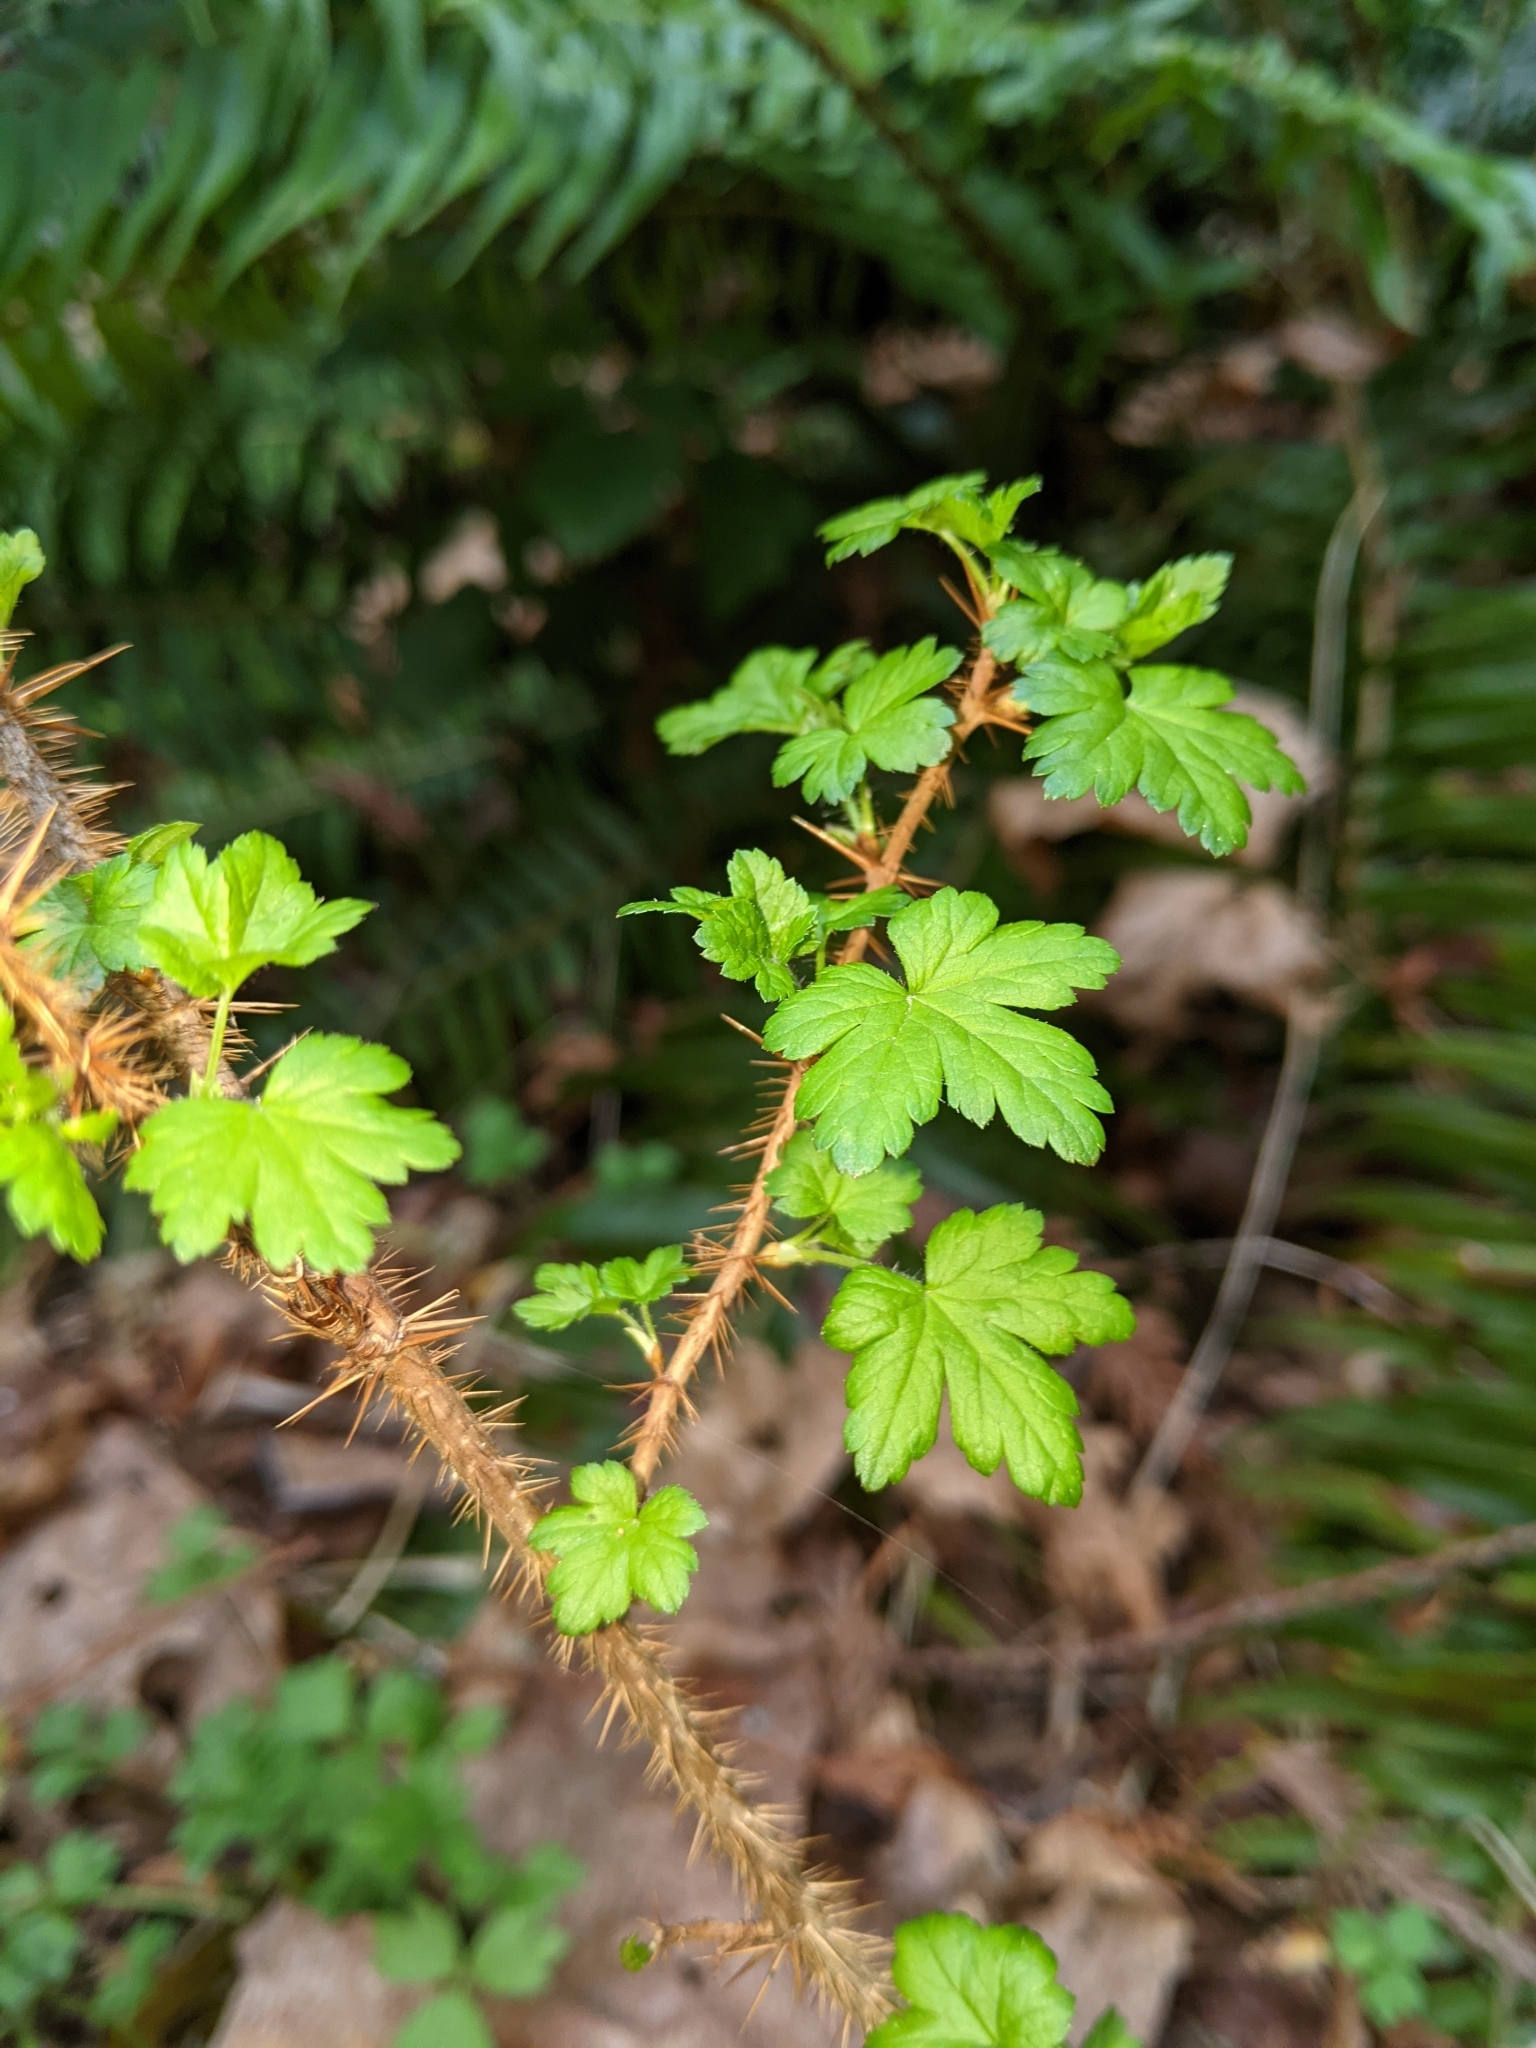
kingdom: Plantae
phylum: Tracheophyta
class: Magnoliopsida
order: Saxifragales
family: Grossulariaceae
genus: Ribes
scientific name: Ribes lacustre
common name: Black gooseberry
